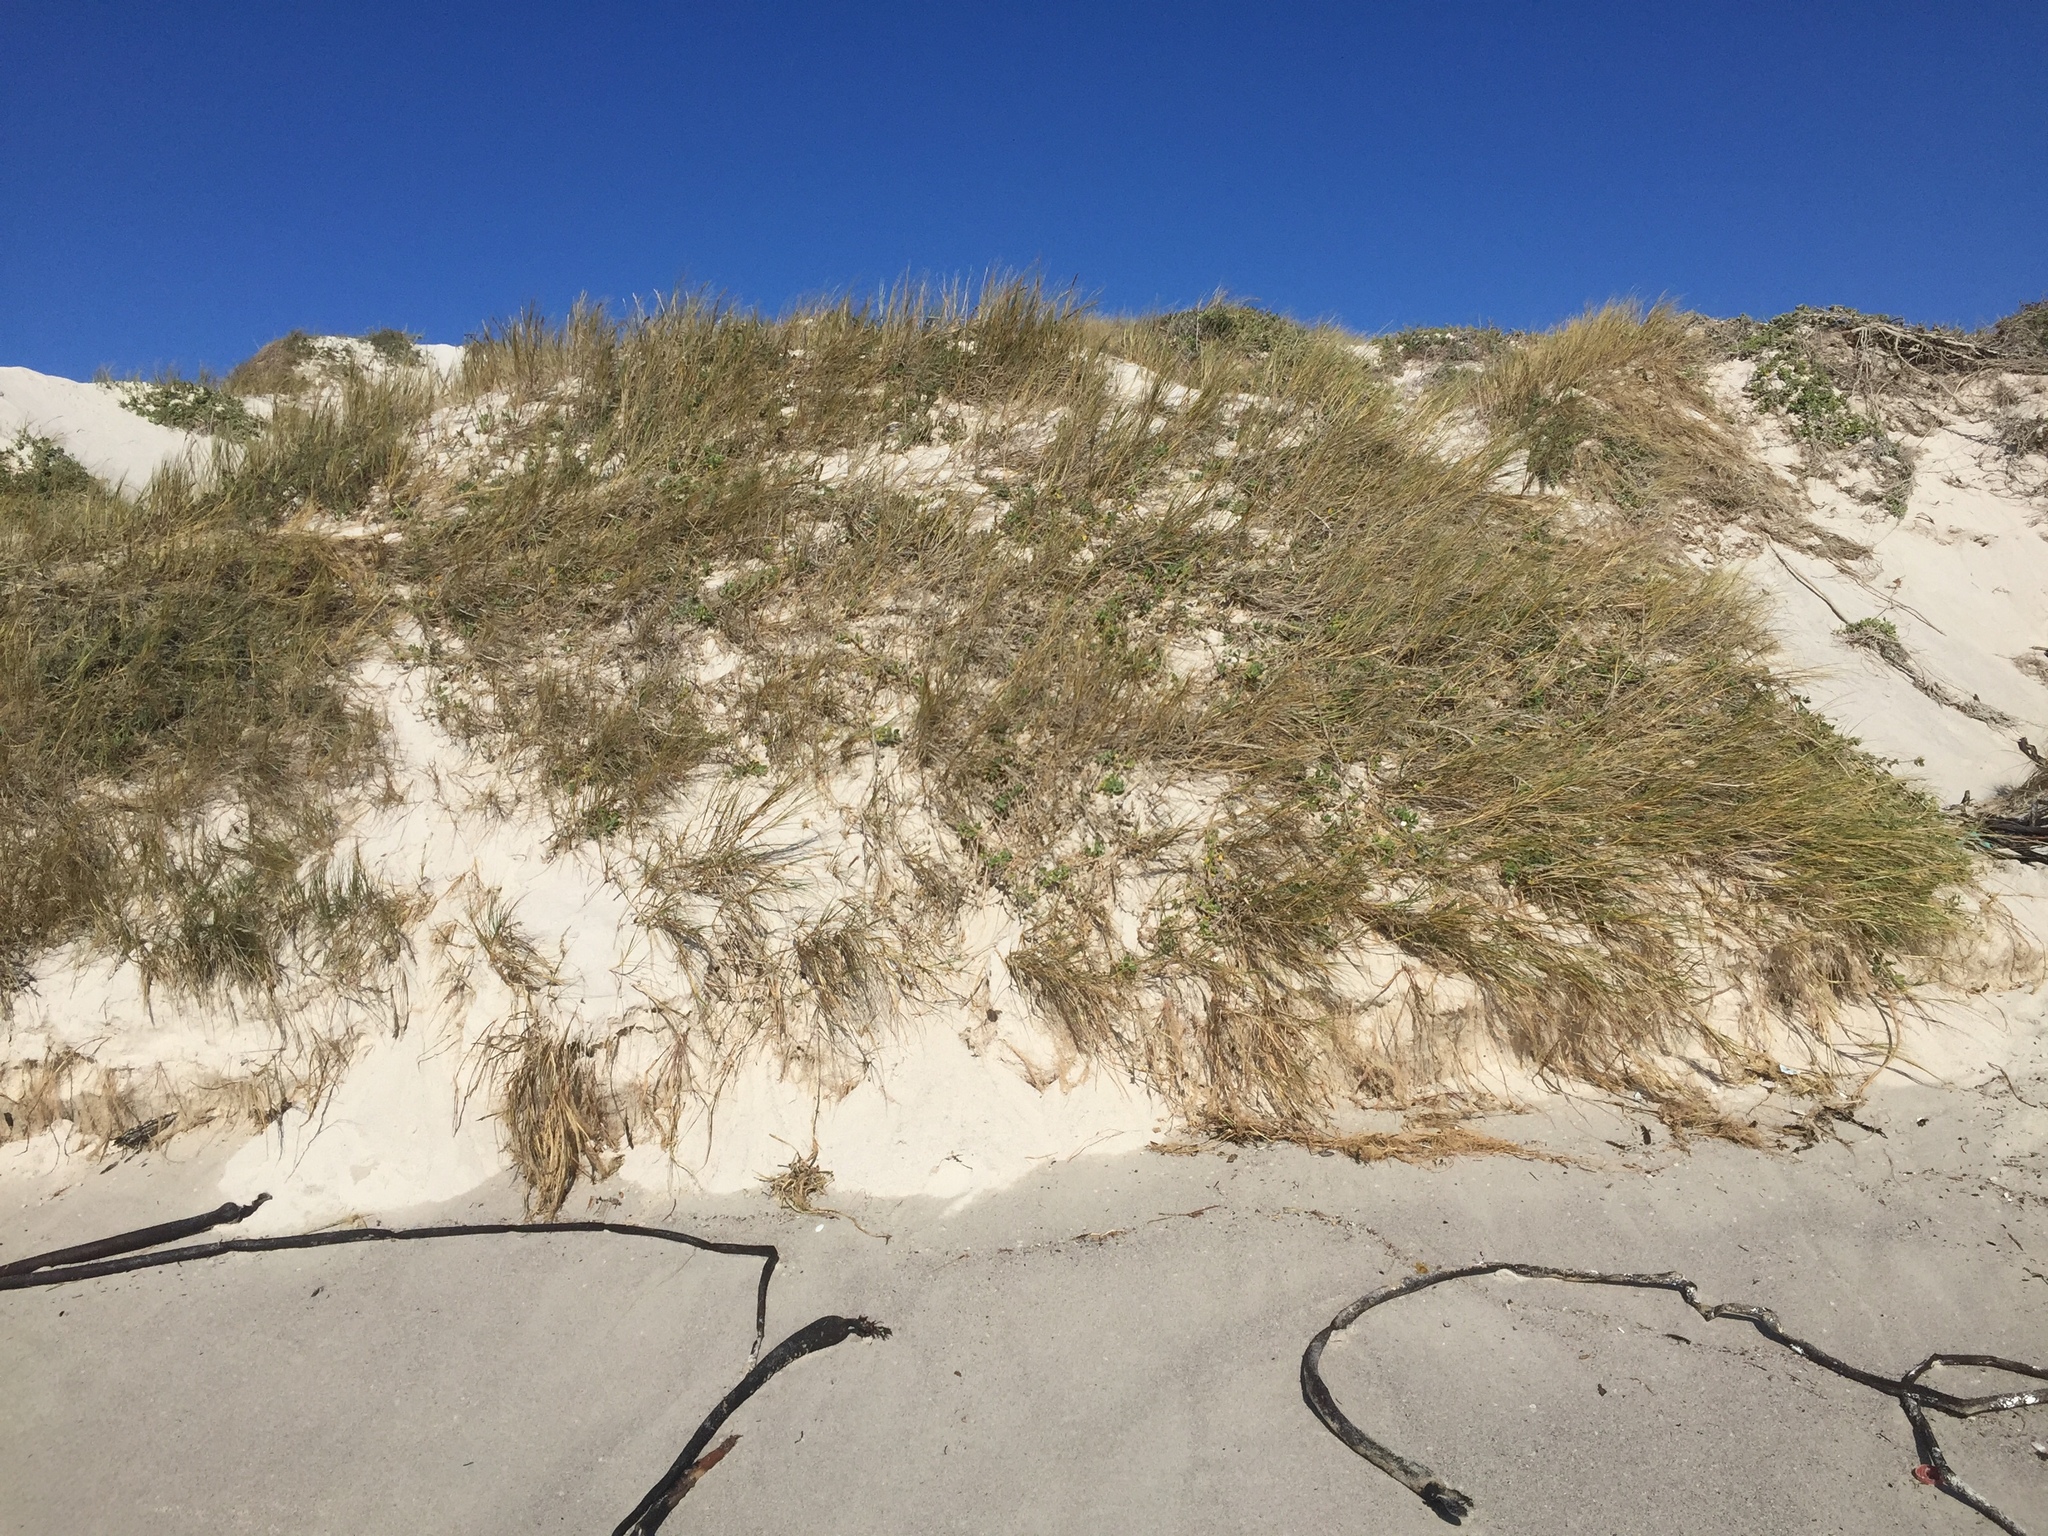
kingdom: Plantae
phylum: Tracheophyta
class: Liliopsida
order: Poales
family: Poaceae
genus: Thinopyrum
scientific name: Thinopyrum distichum
